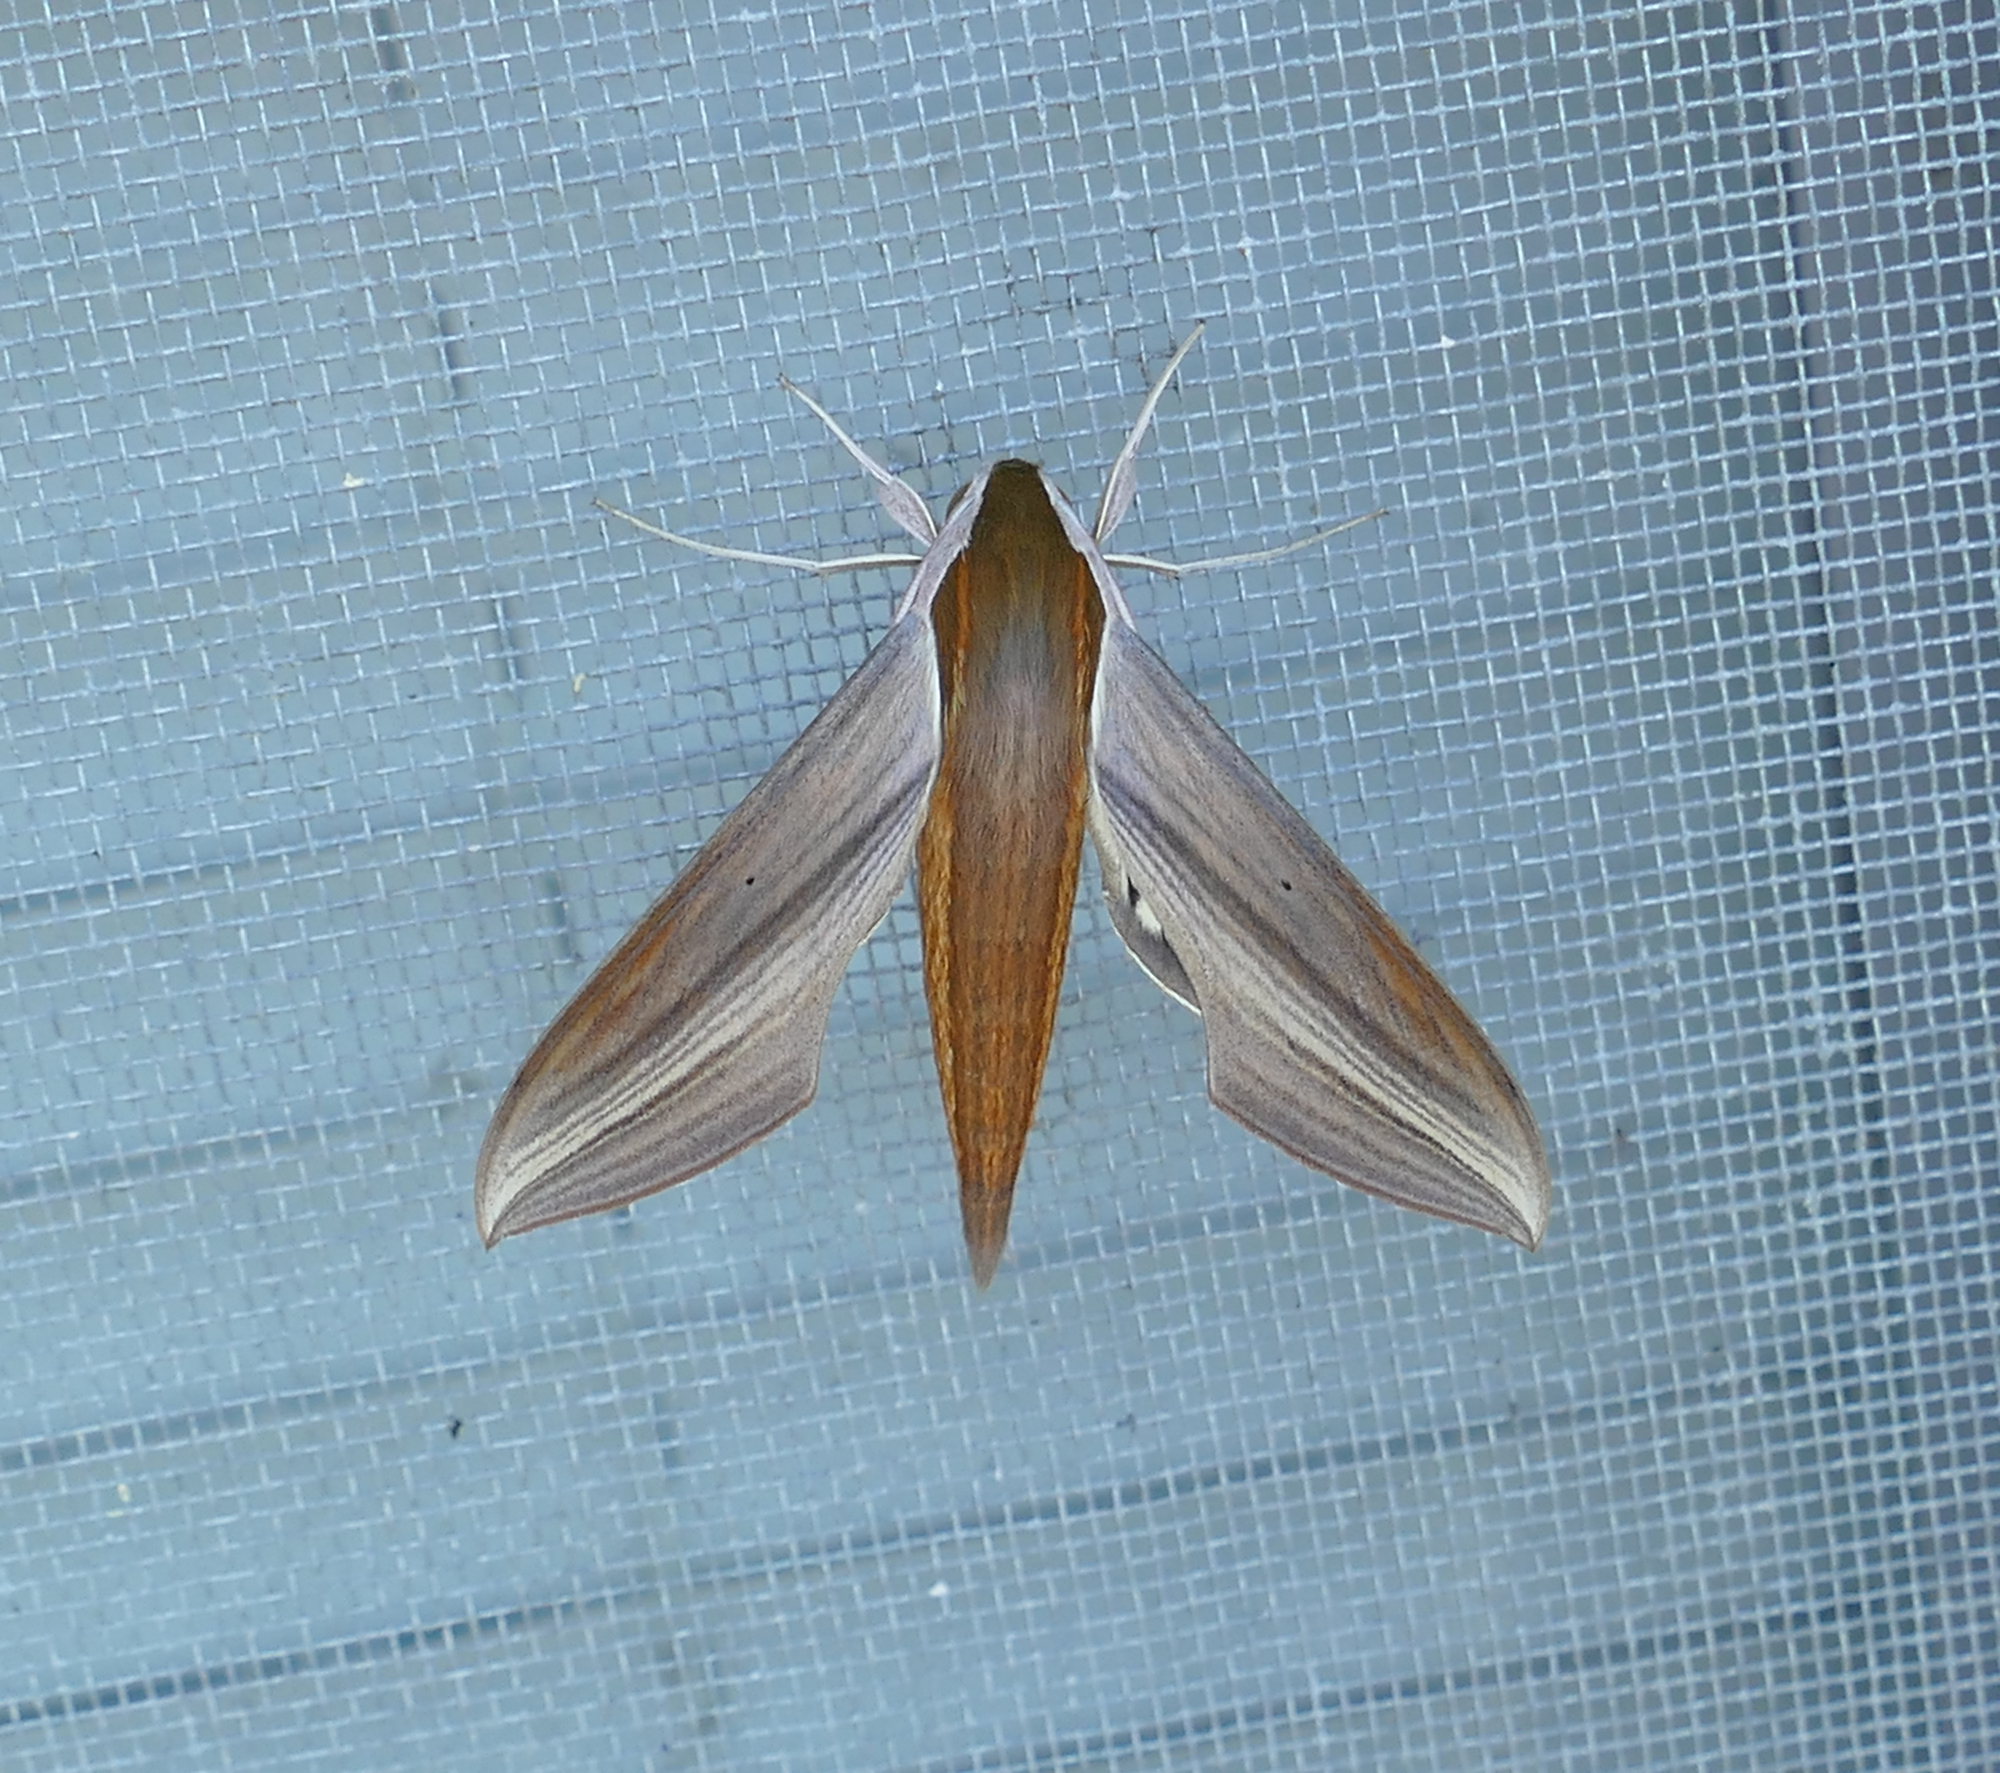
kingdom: Animalia
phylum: Arthropoda
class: Insecta
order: Lepidoptera
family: Sphingidae
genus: Xylophanes
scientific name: Xylophanes tersa
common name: Tersa sphinx
